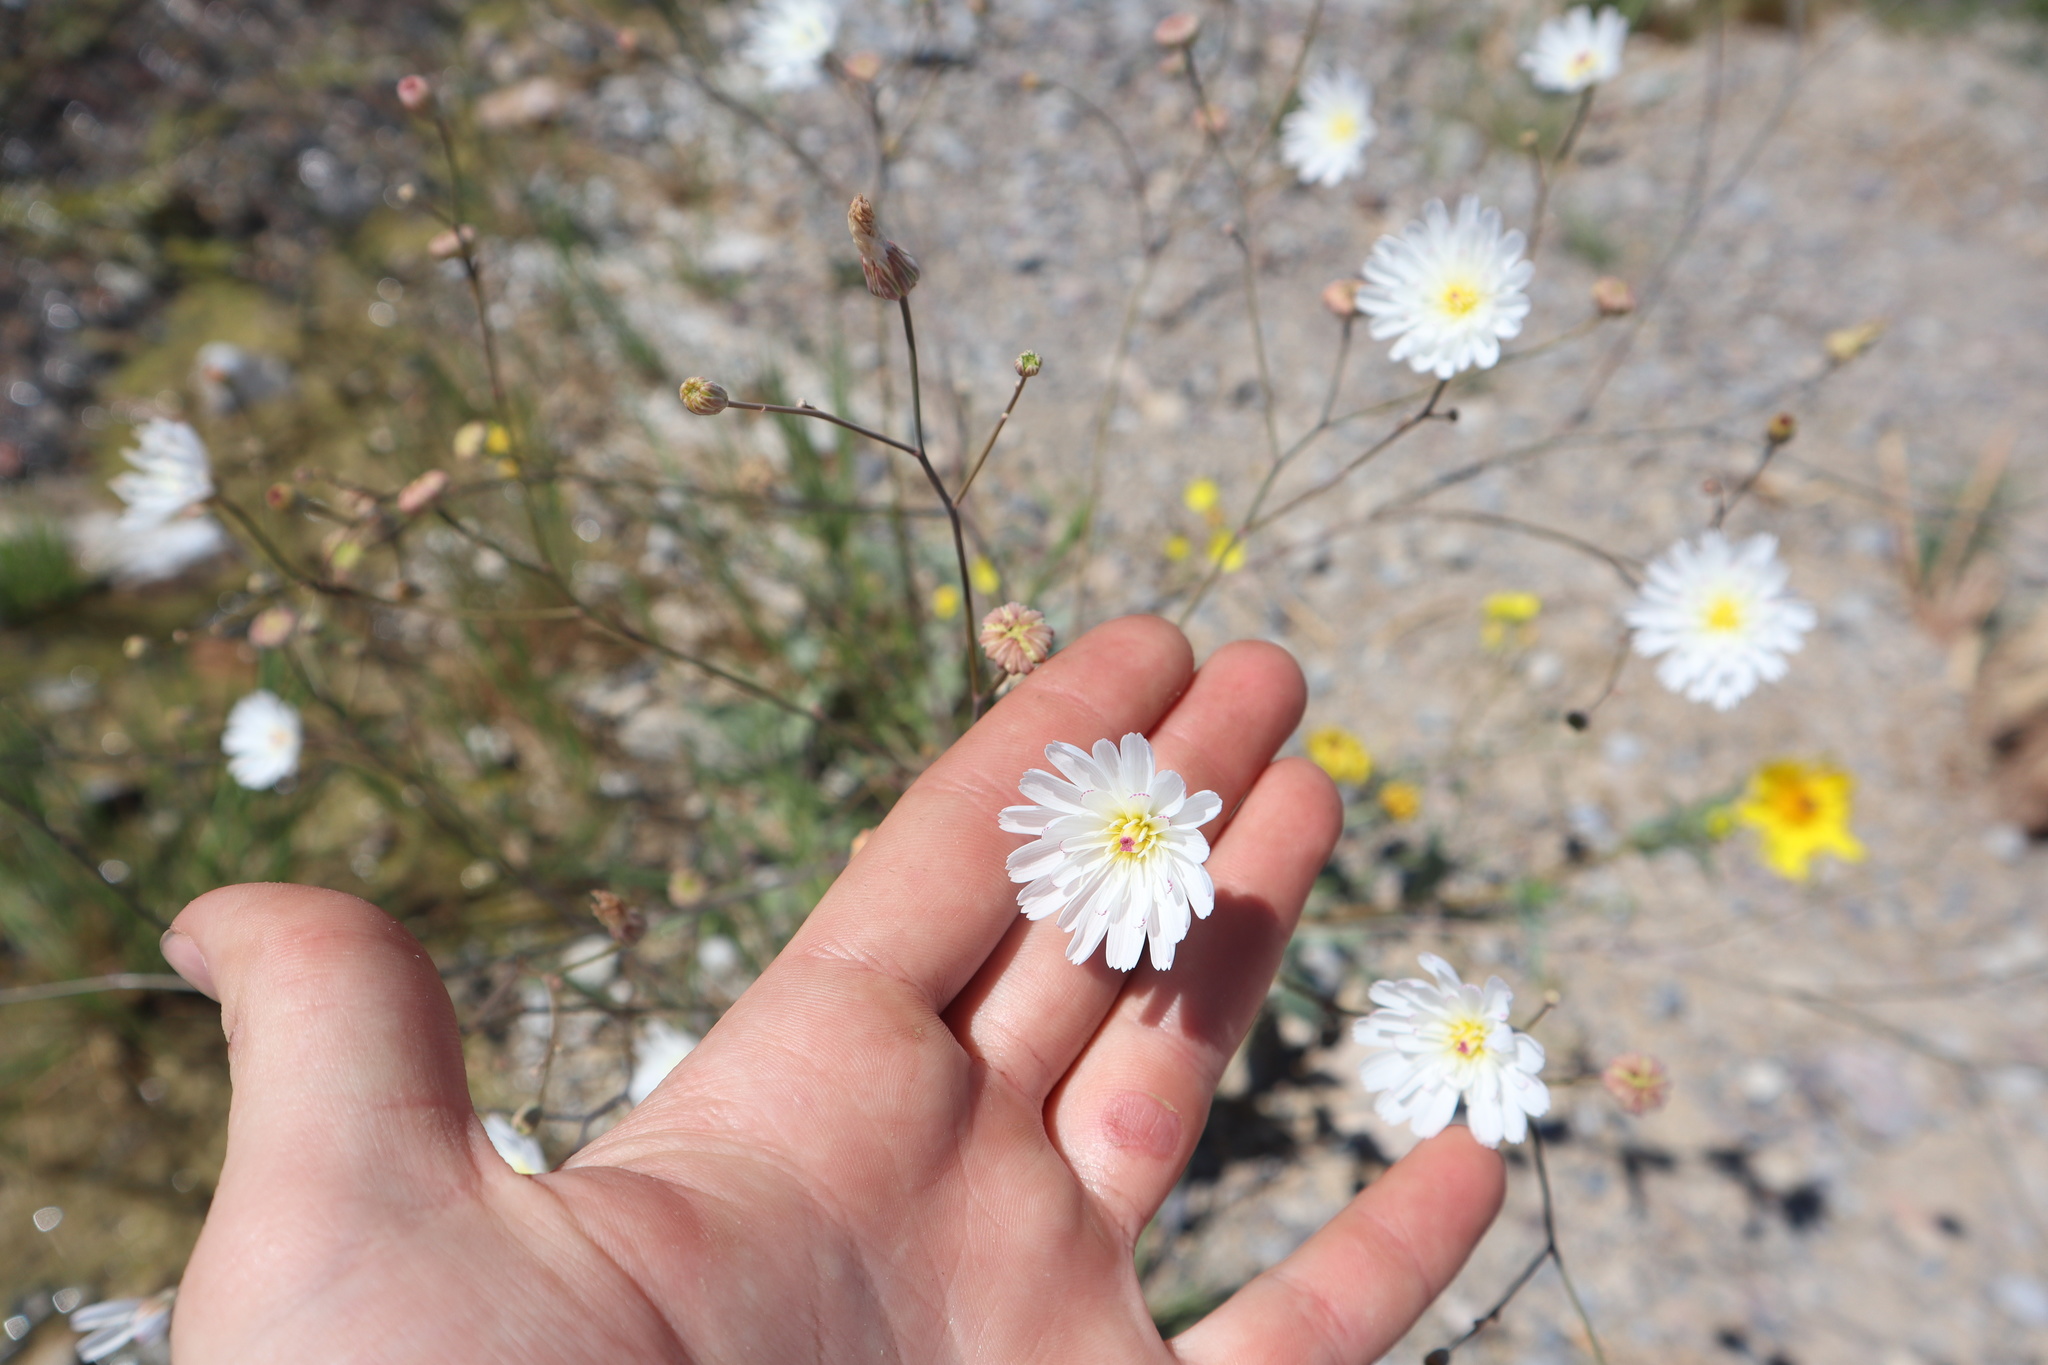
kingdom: Plantae
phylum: Tracheophyta
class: Magnoliopsida
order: Asterales
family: Asteraceae
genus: Atrichoseris
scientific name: Atrichoseris platyphylla
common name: Tobaccoweed
